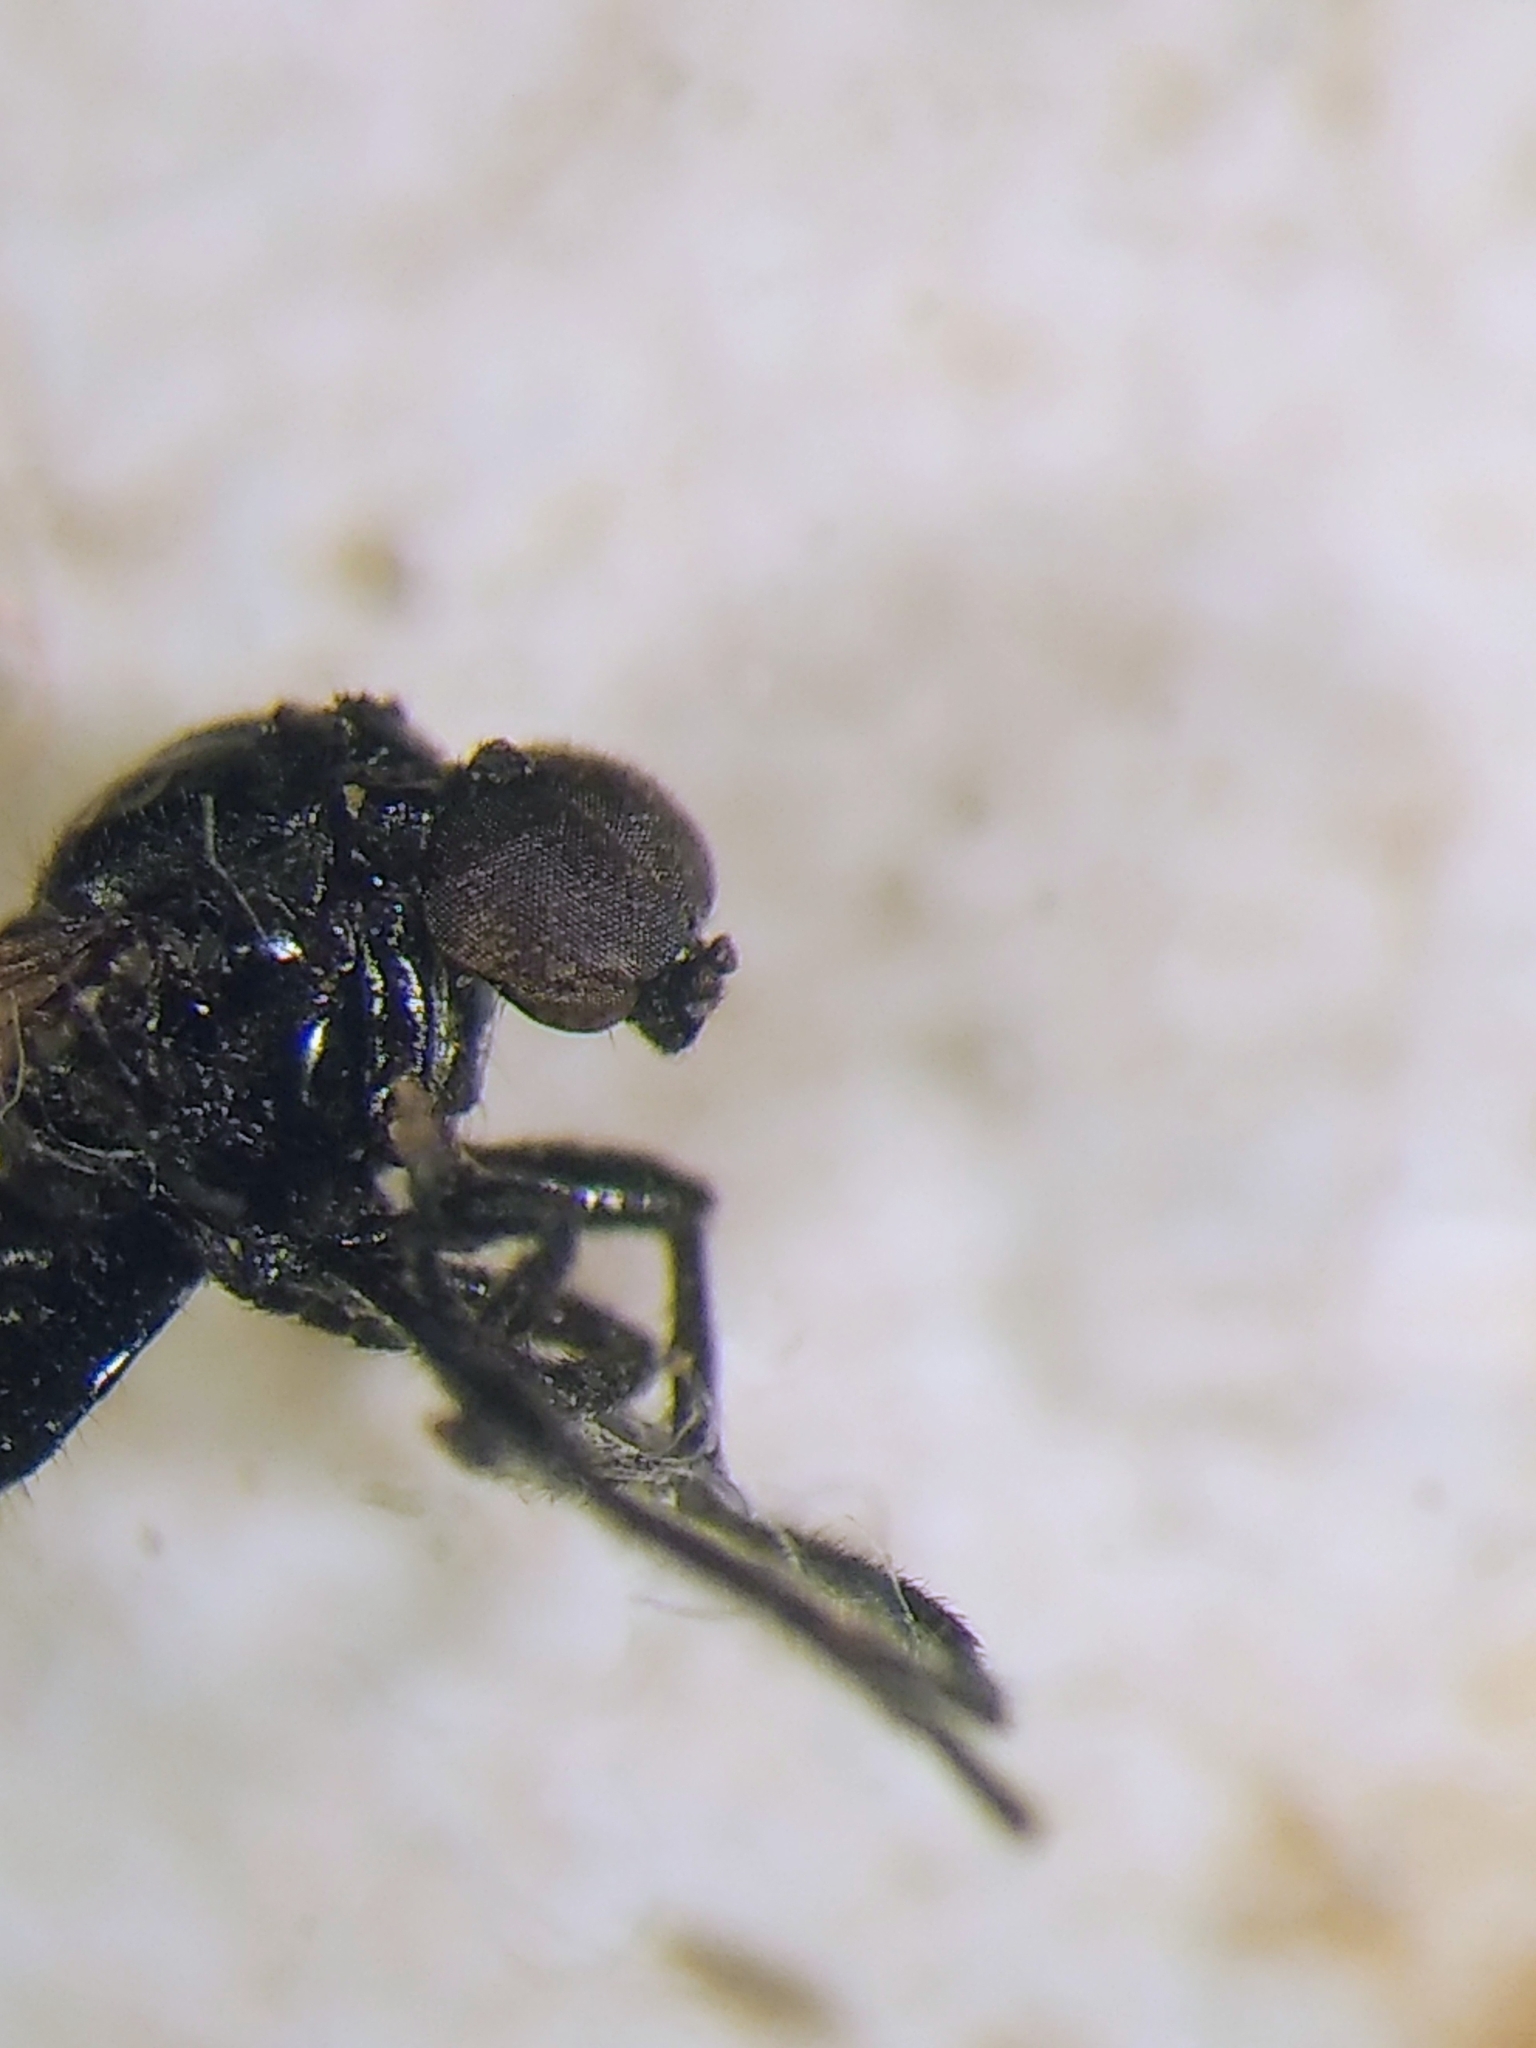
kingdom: Animalia
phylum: Arthropoda
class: Insecta
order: Diptera
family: Bibionidae
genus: Dilophus
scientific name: Dilophus orbatus
